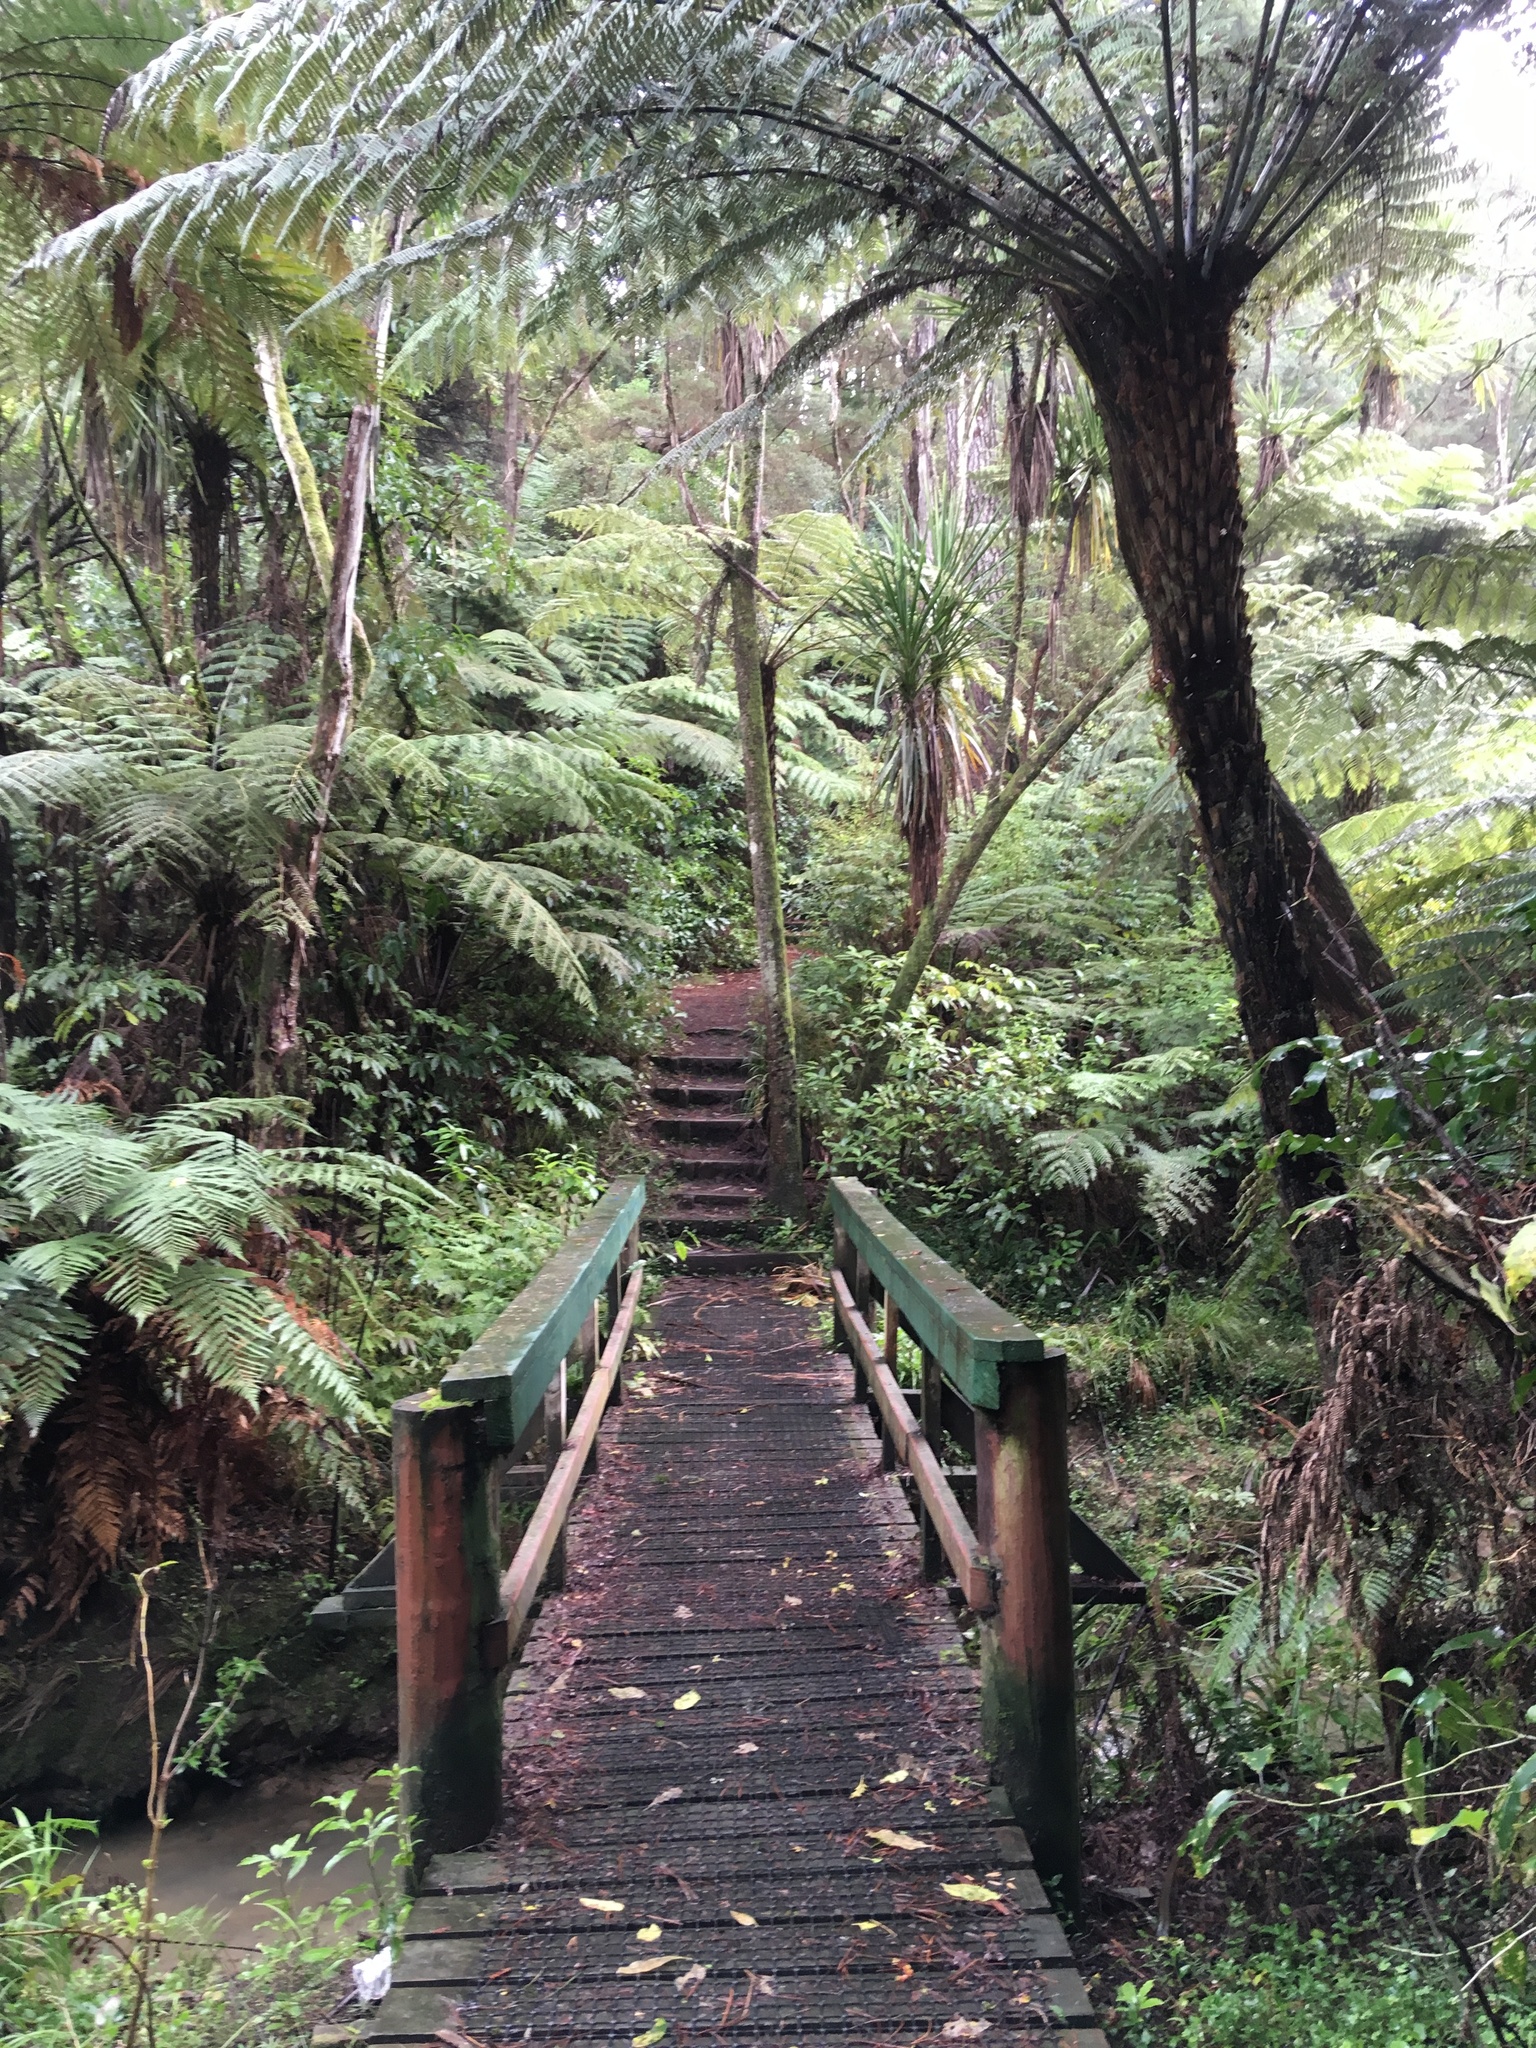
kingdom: Plantae
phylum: Tracheophyta
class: Polypodiopsida
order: Cyatheales
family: Cyatheaceae
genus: Alsophila
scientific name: Alsophila dealbata
